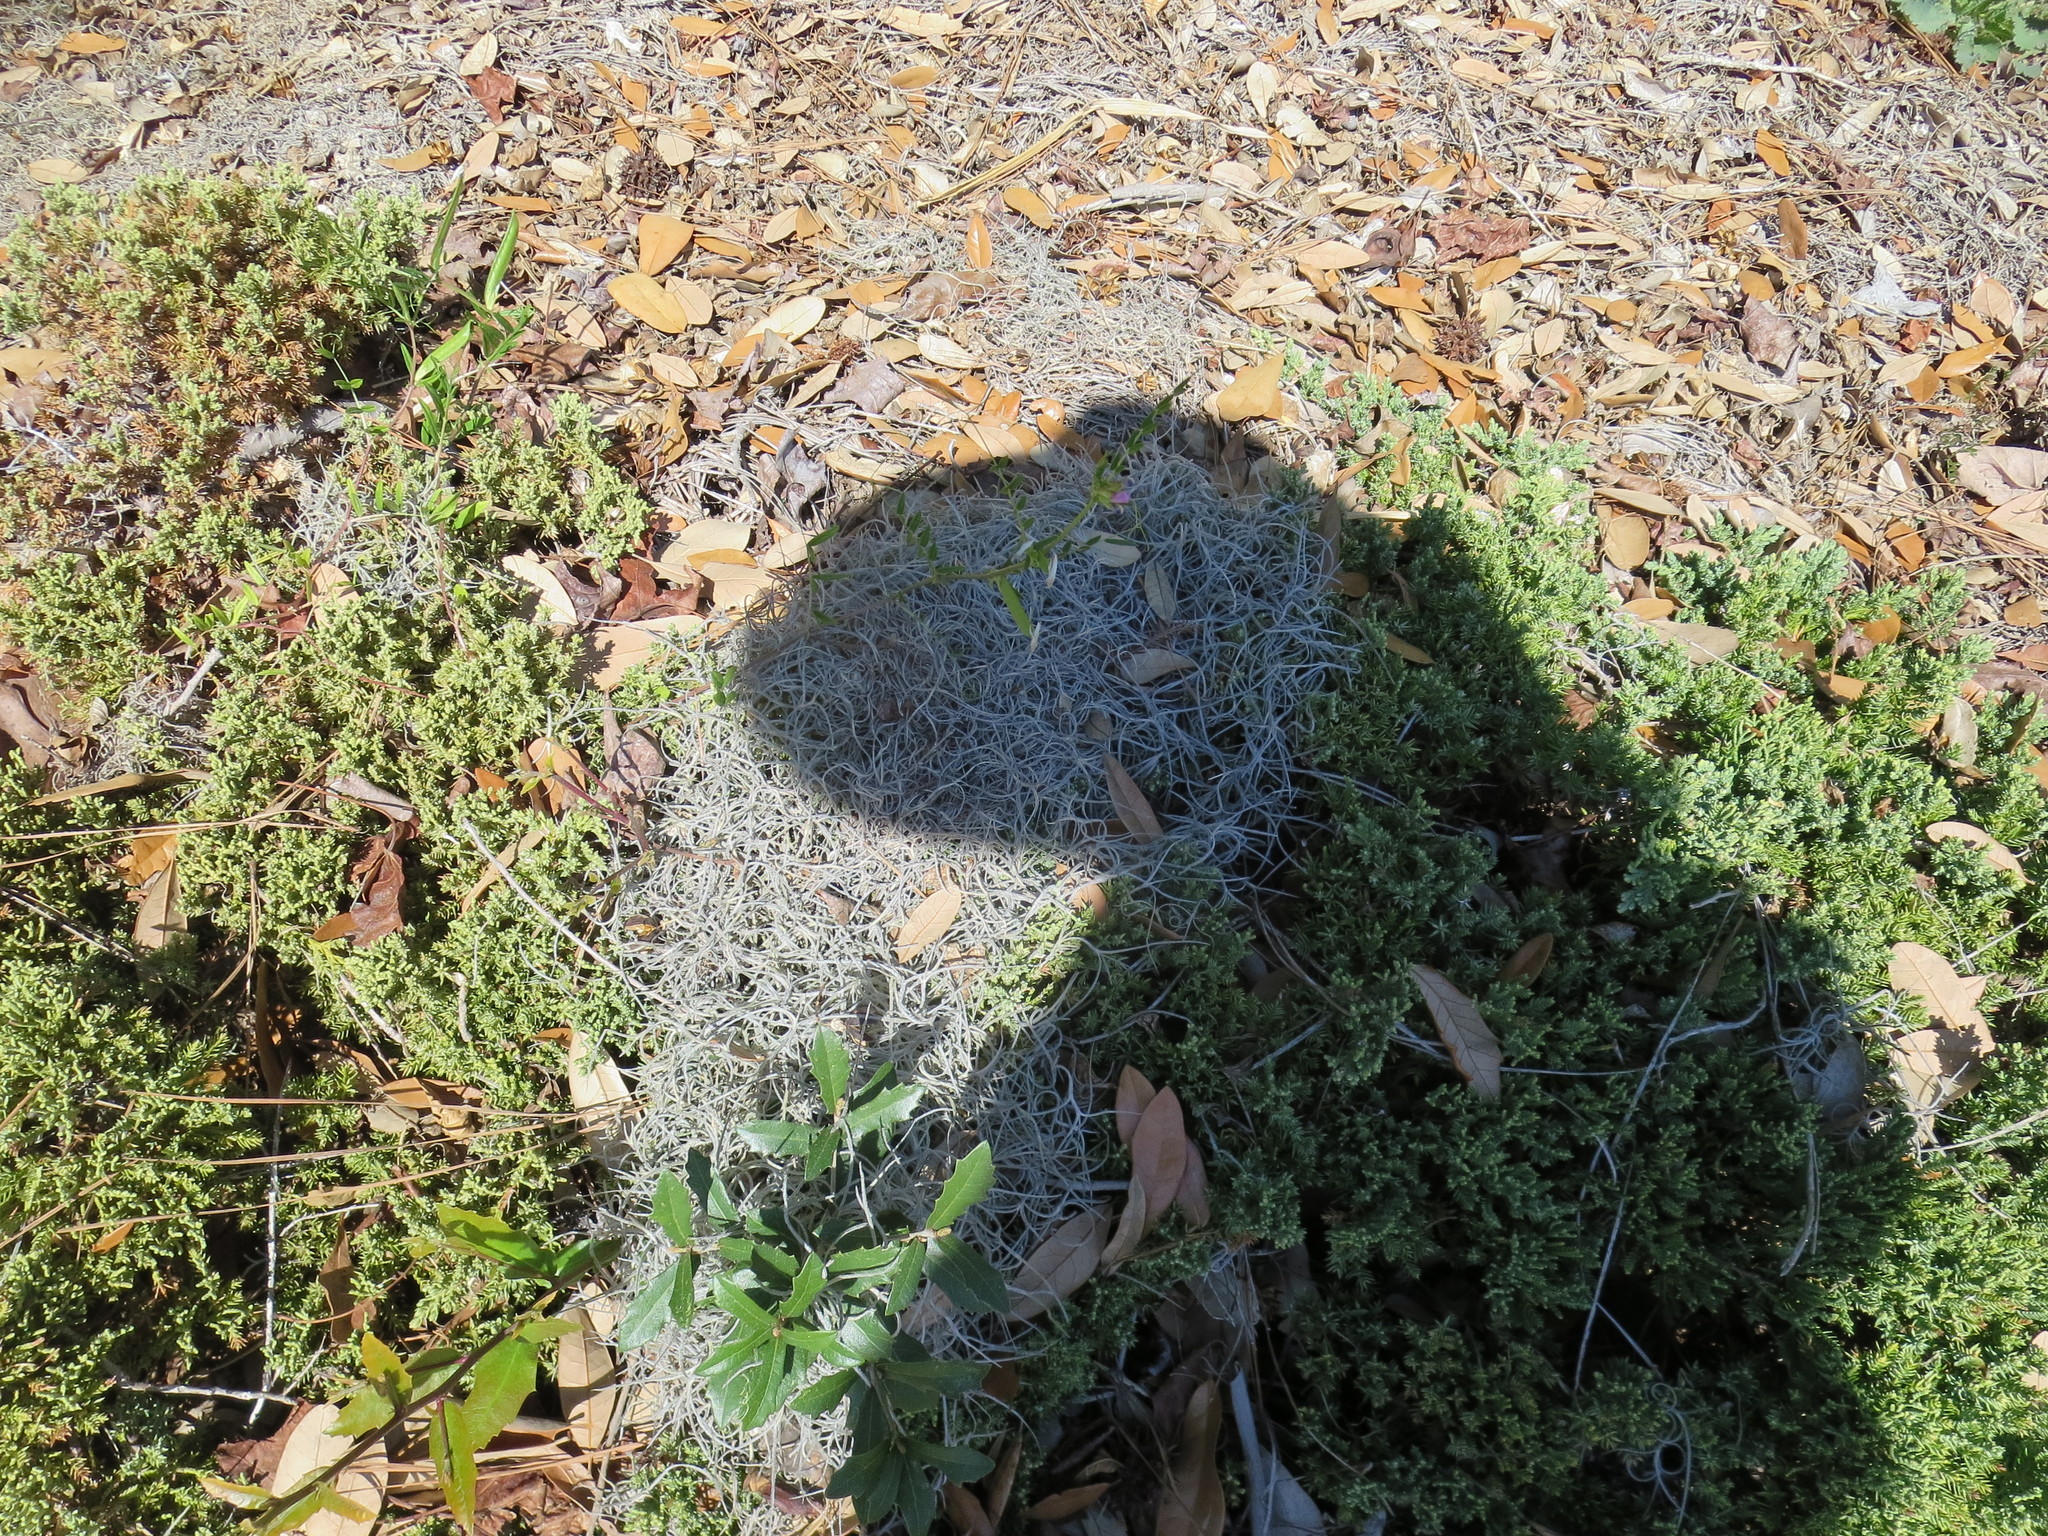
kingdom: Plantae
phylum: Tracheophyta
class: Liliopsida
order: Poales
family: Bromeliaceae
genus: Tillandsia
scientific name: Tillandsia usneoides
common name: Spanish moss
